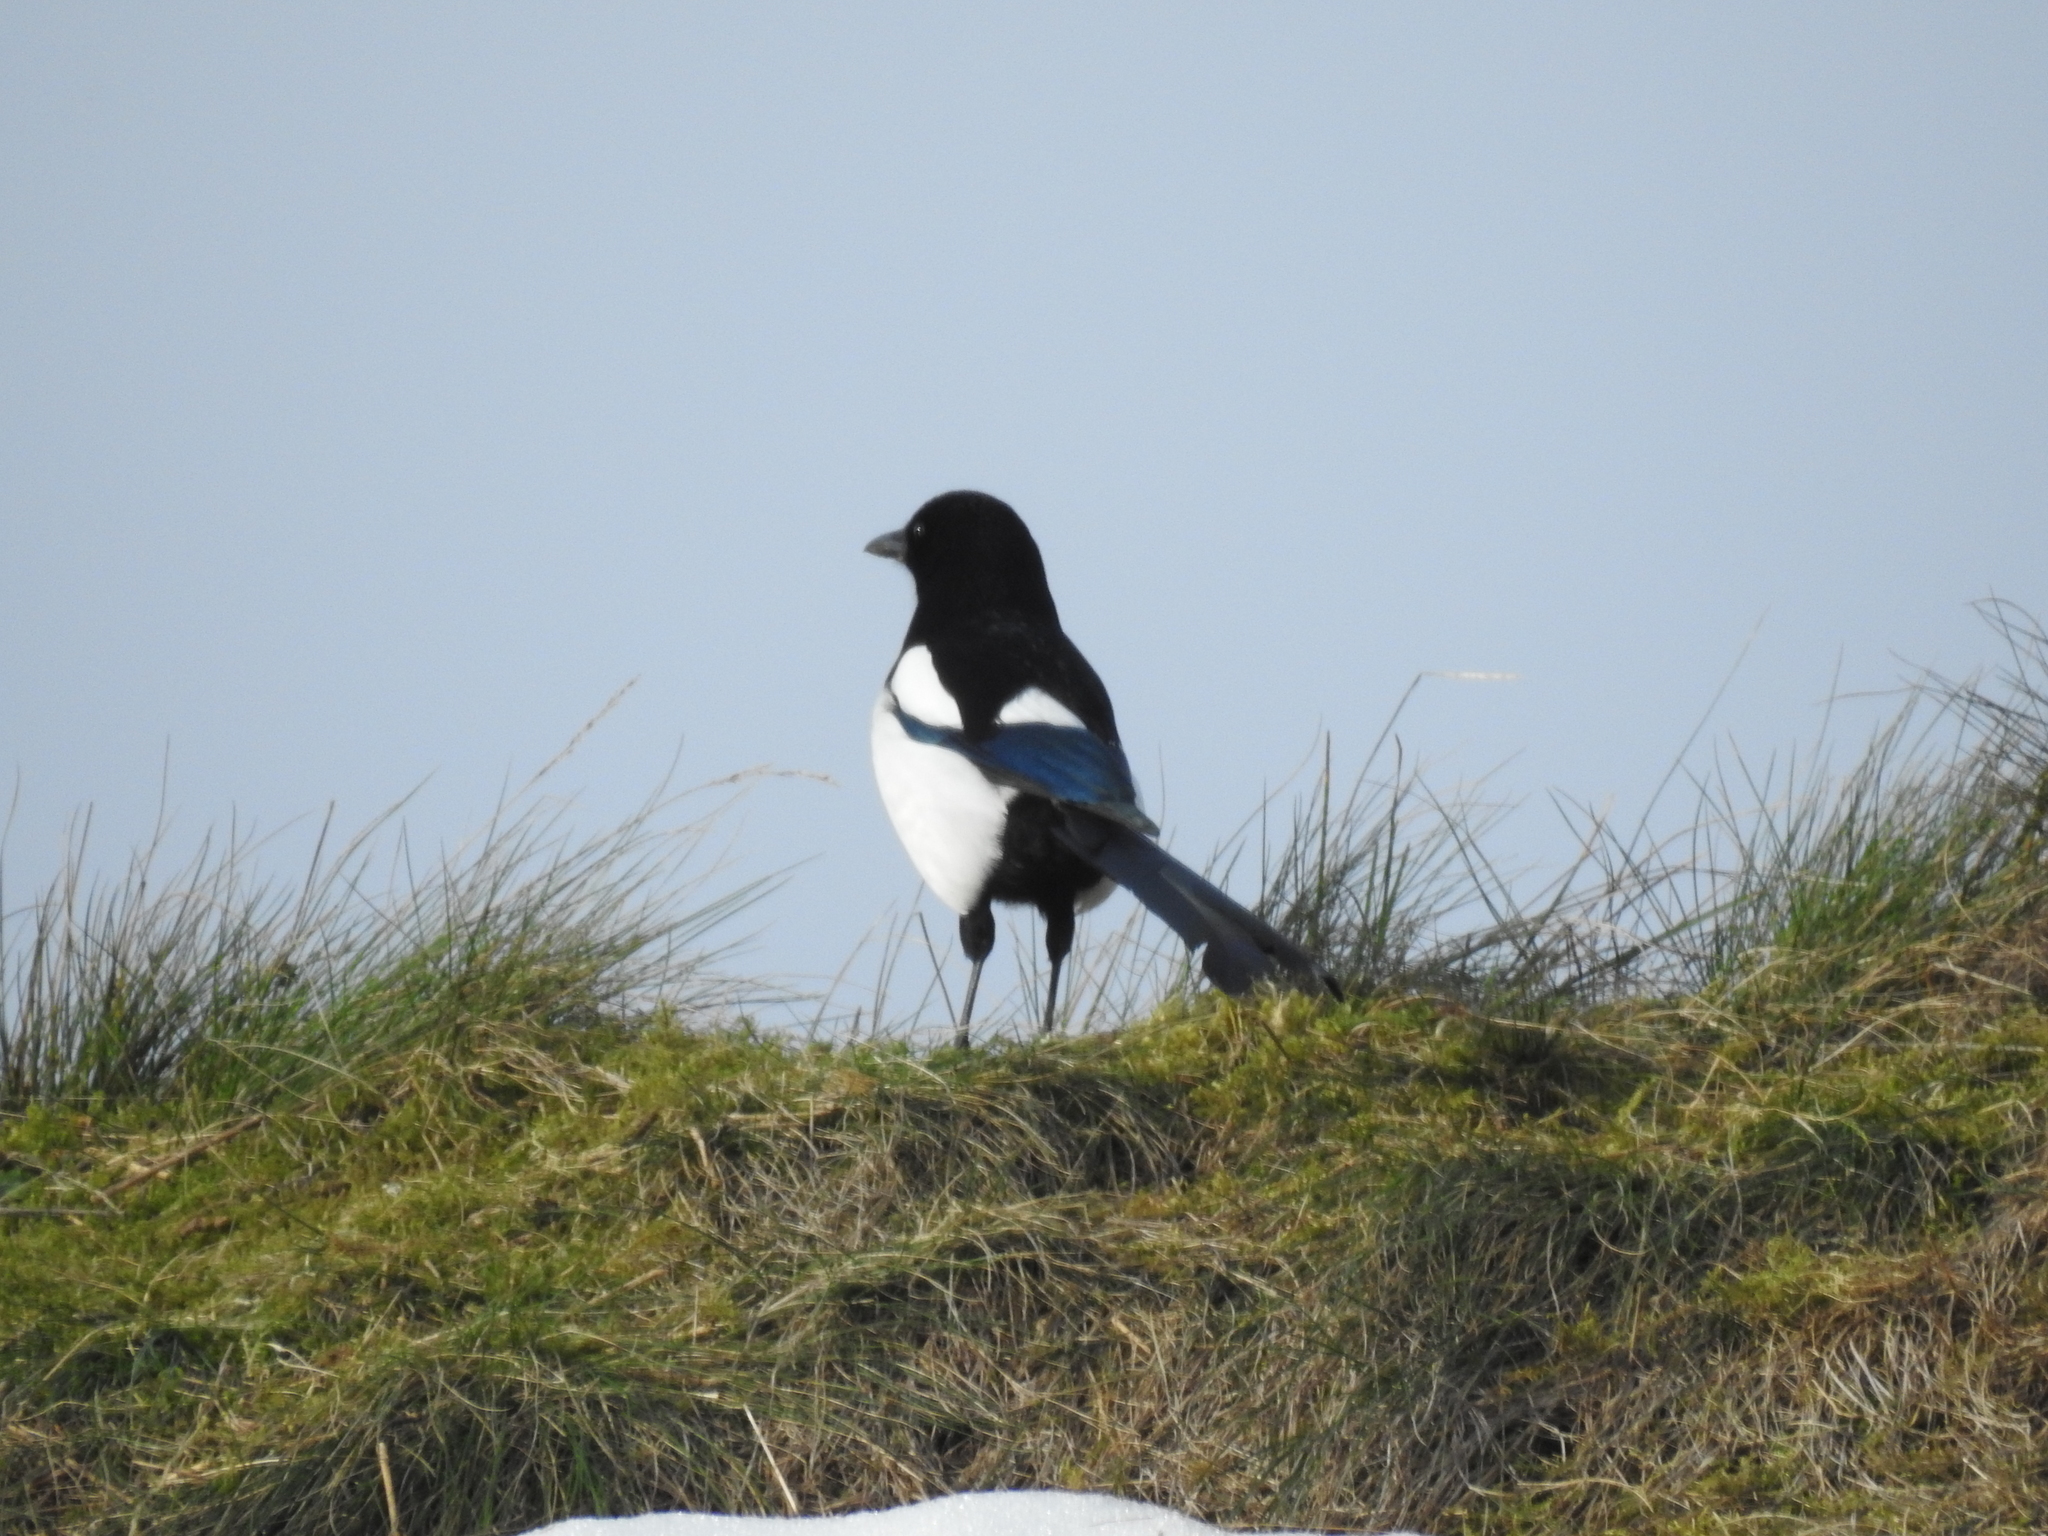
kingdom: Animalia
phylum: Chordata
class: Aves
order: Passeriformes
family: Corvidae
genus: Pica
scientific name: Pica pica
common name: Eurasian magpie
